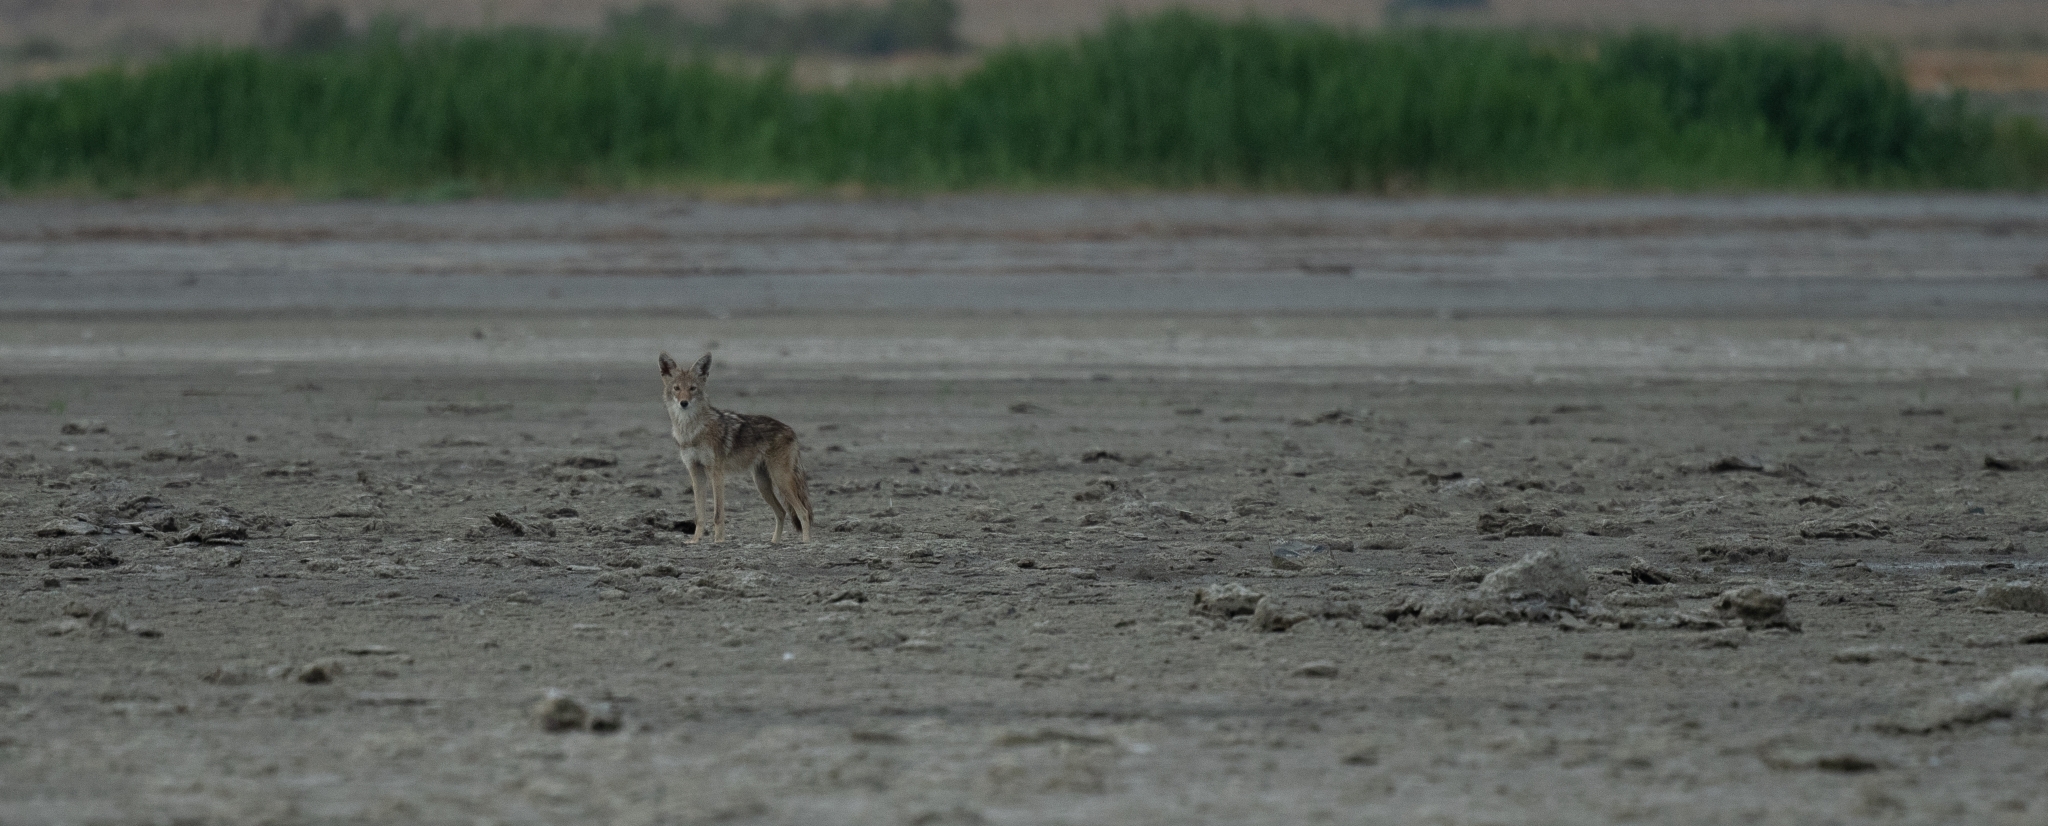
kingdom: Animalia
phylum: Chordata
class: Mammalia
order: Carnivora
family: Canidae
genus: Canis
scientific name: Canis latrans
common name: Coyote
